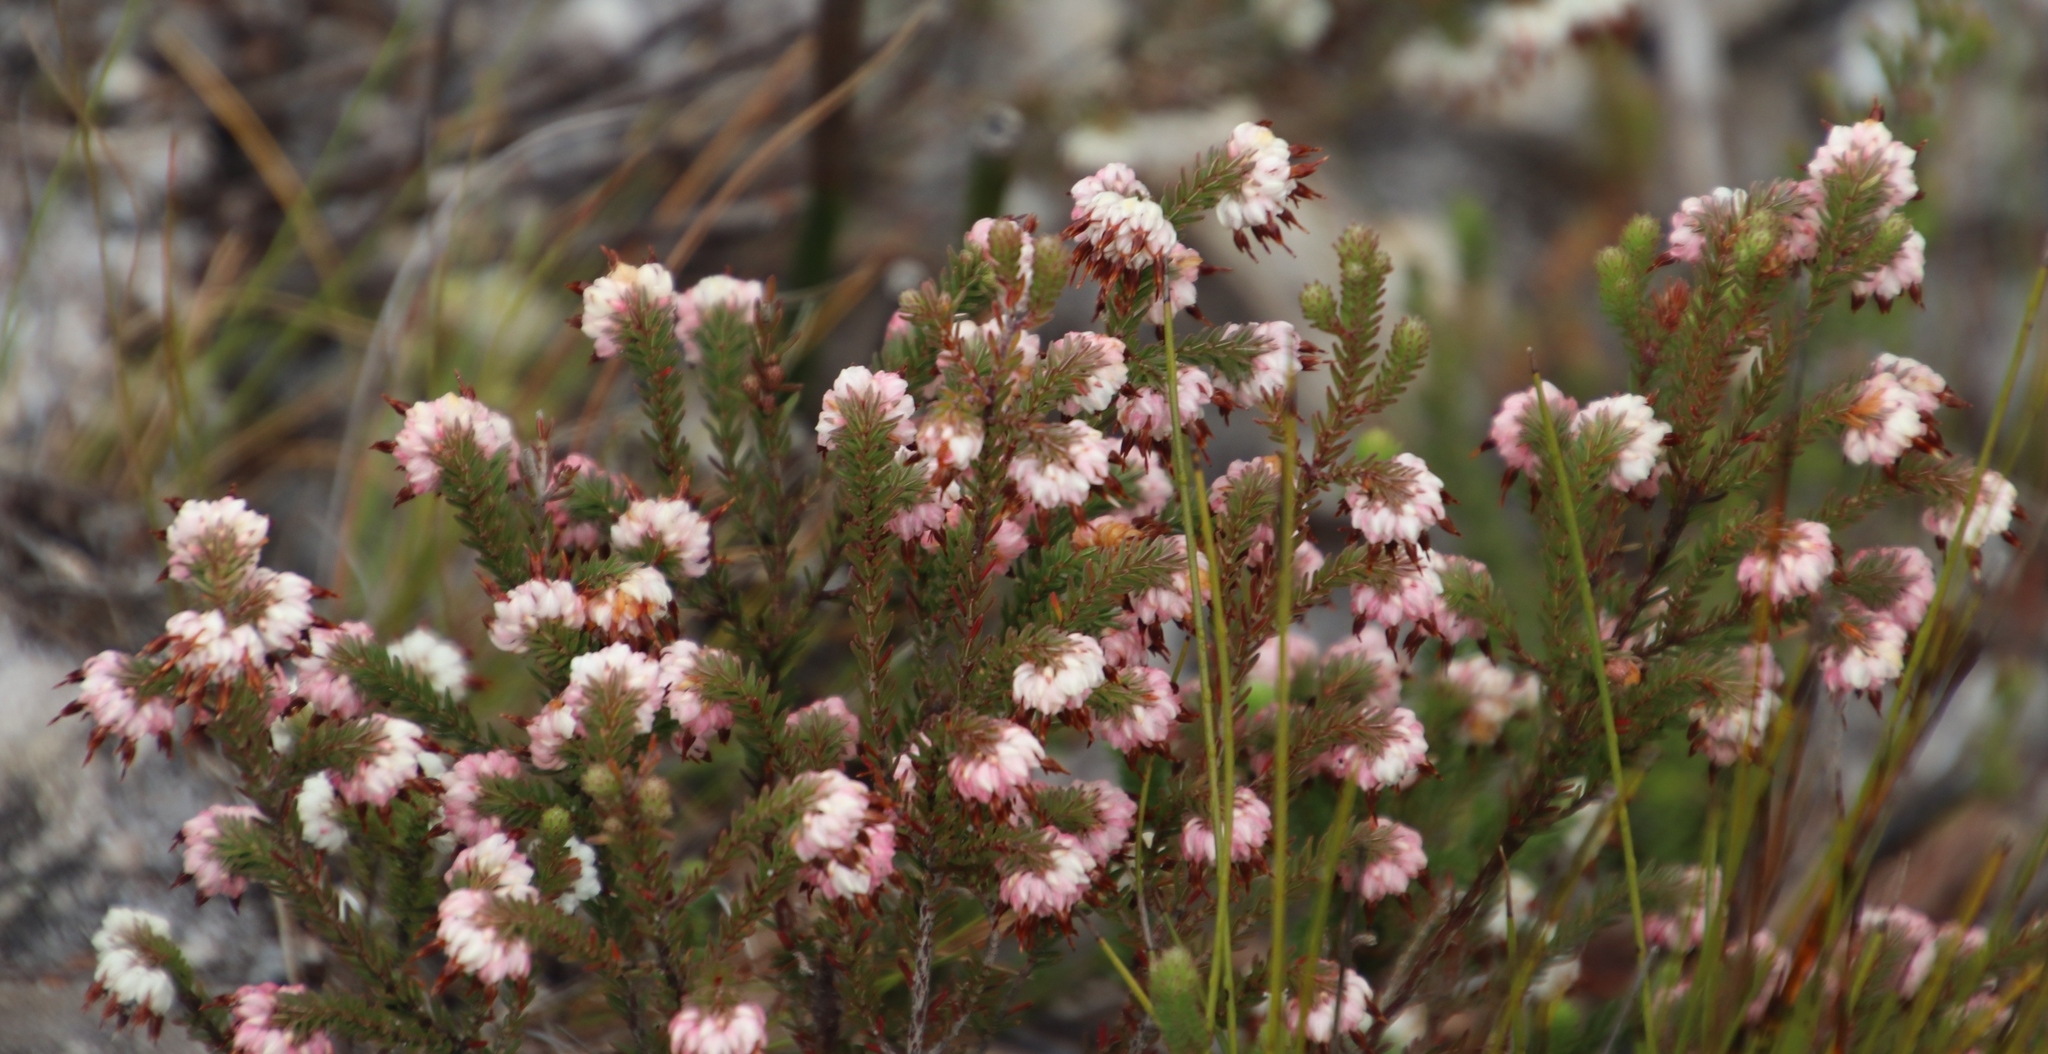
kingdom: Plantae
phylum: Tracheophyta
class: Magnoliopsida
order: Ericales
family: Ericaceae
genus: Erica
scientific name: Erica cumuliflora
